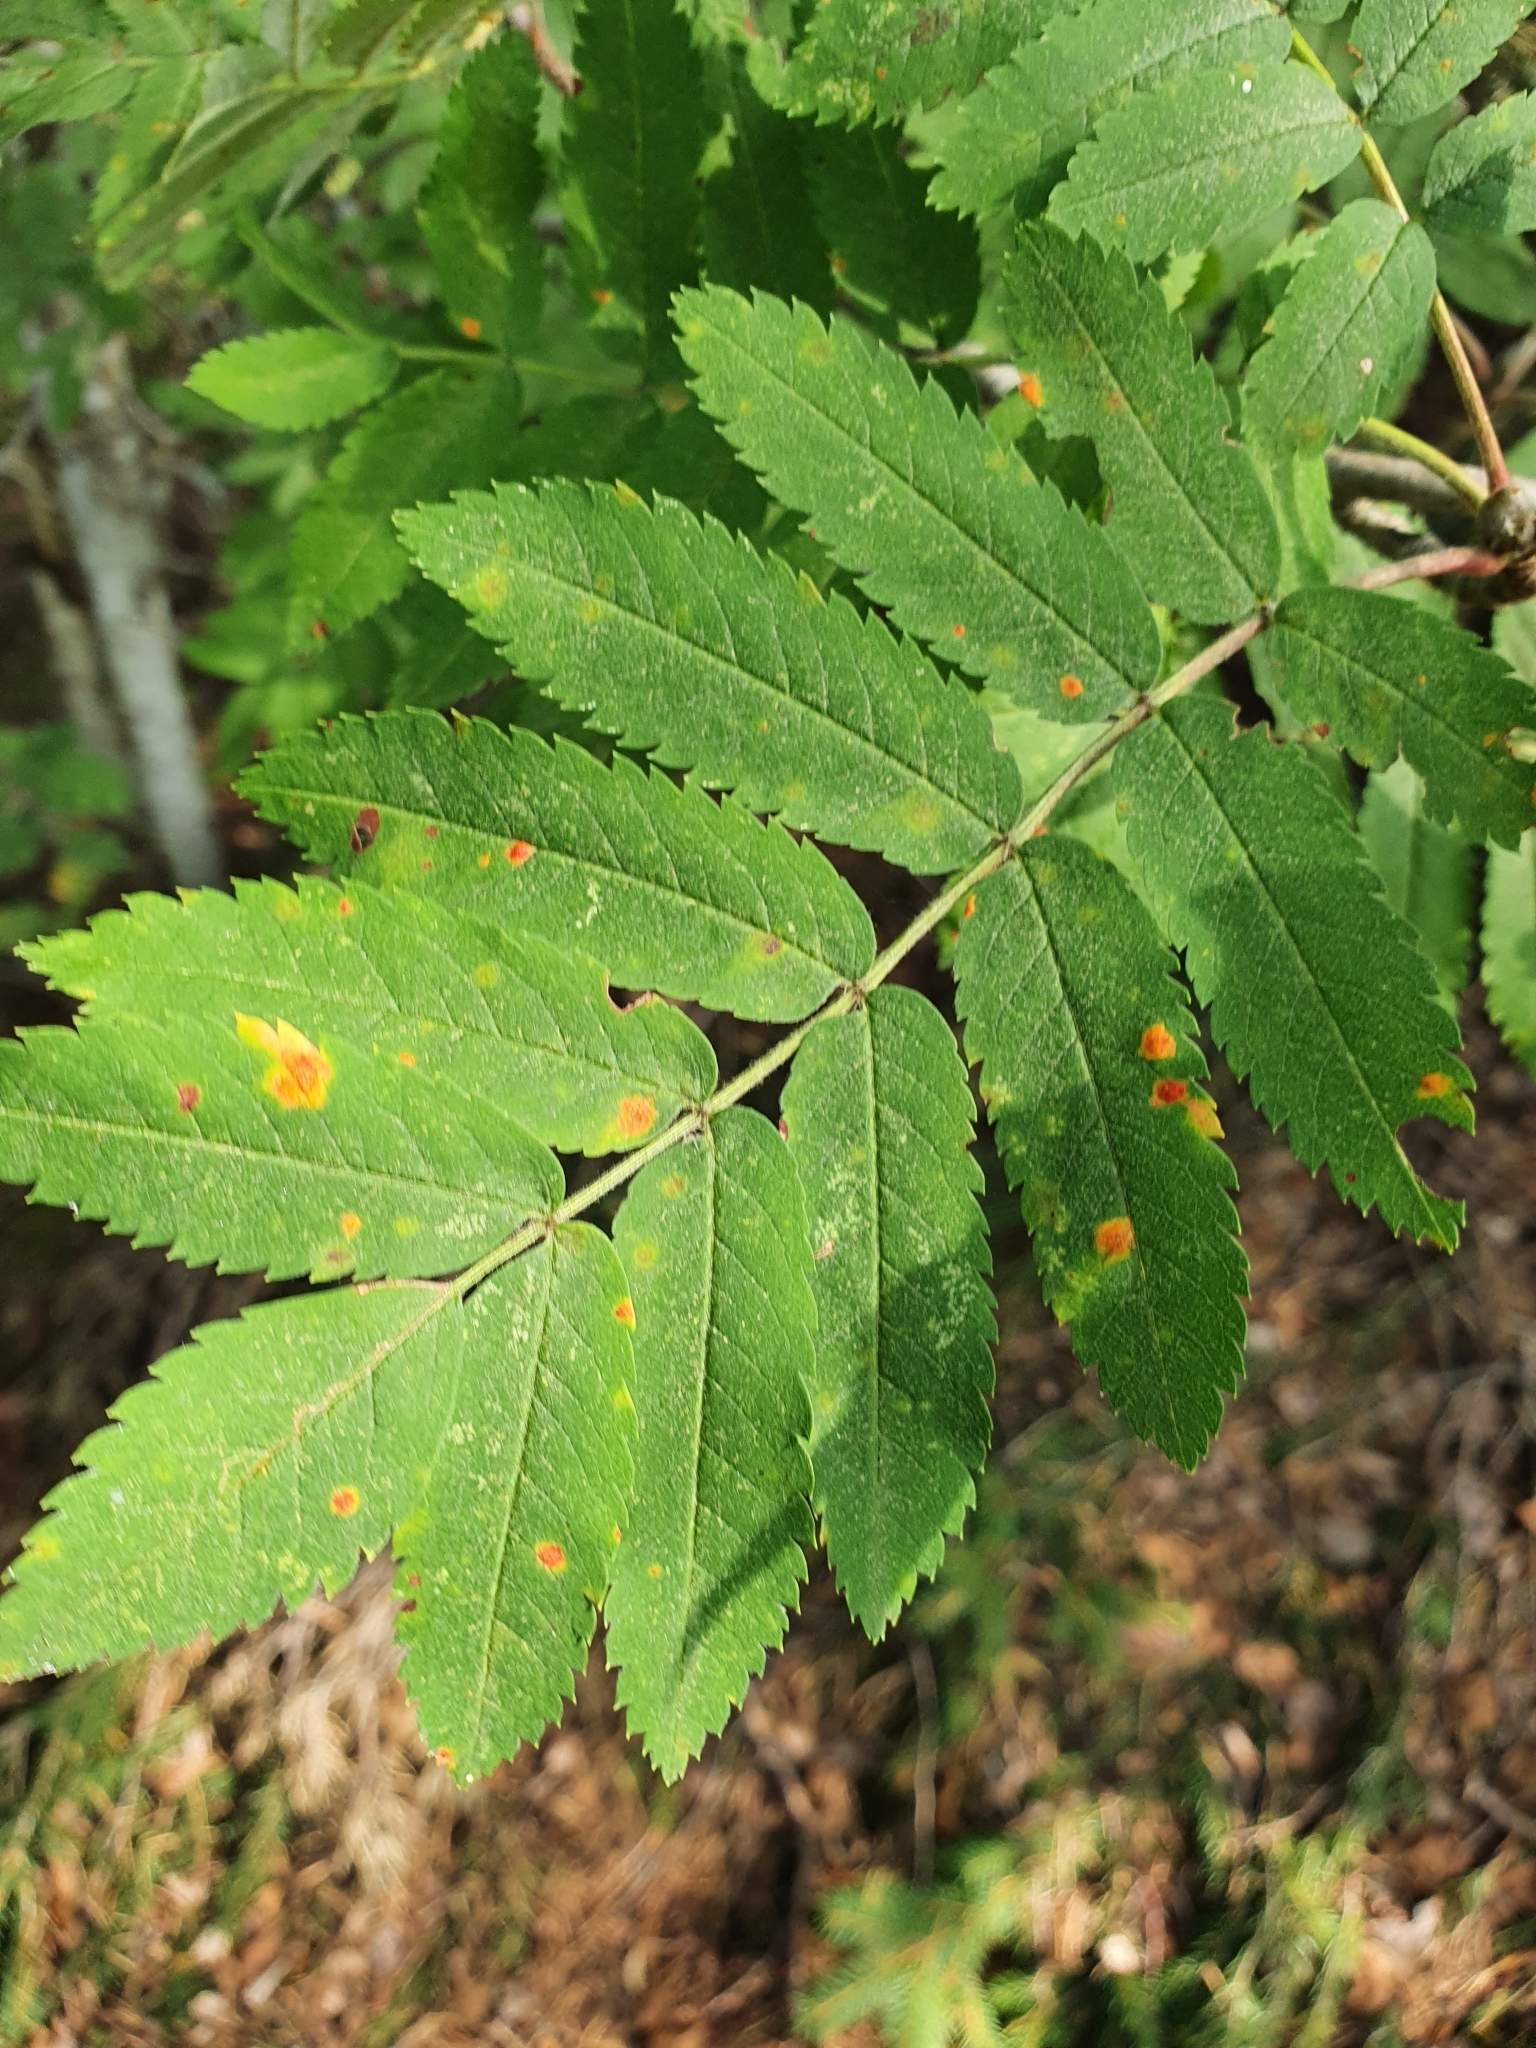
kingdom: Fungi
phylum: Basidiomycota
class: Pucciniomycetes
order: Pucciniales
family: Gymnosporangiaceae
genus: Gymnosporangium
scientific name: Gymnosporangium cornutum
